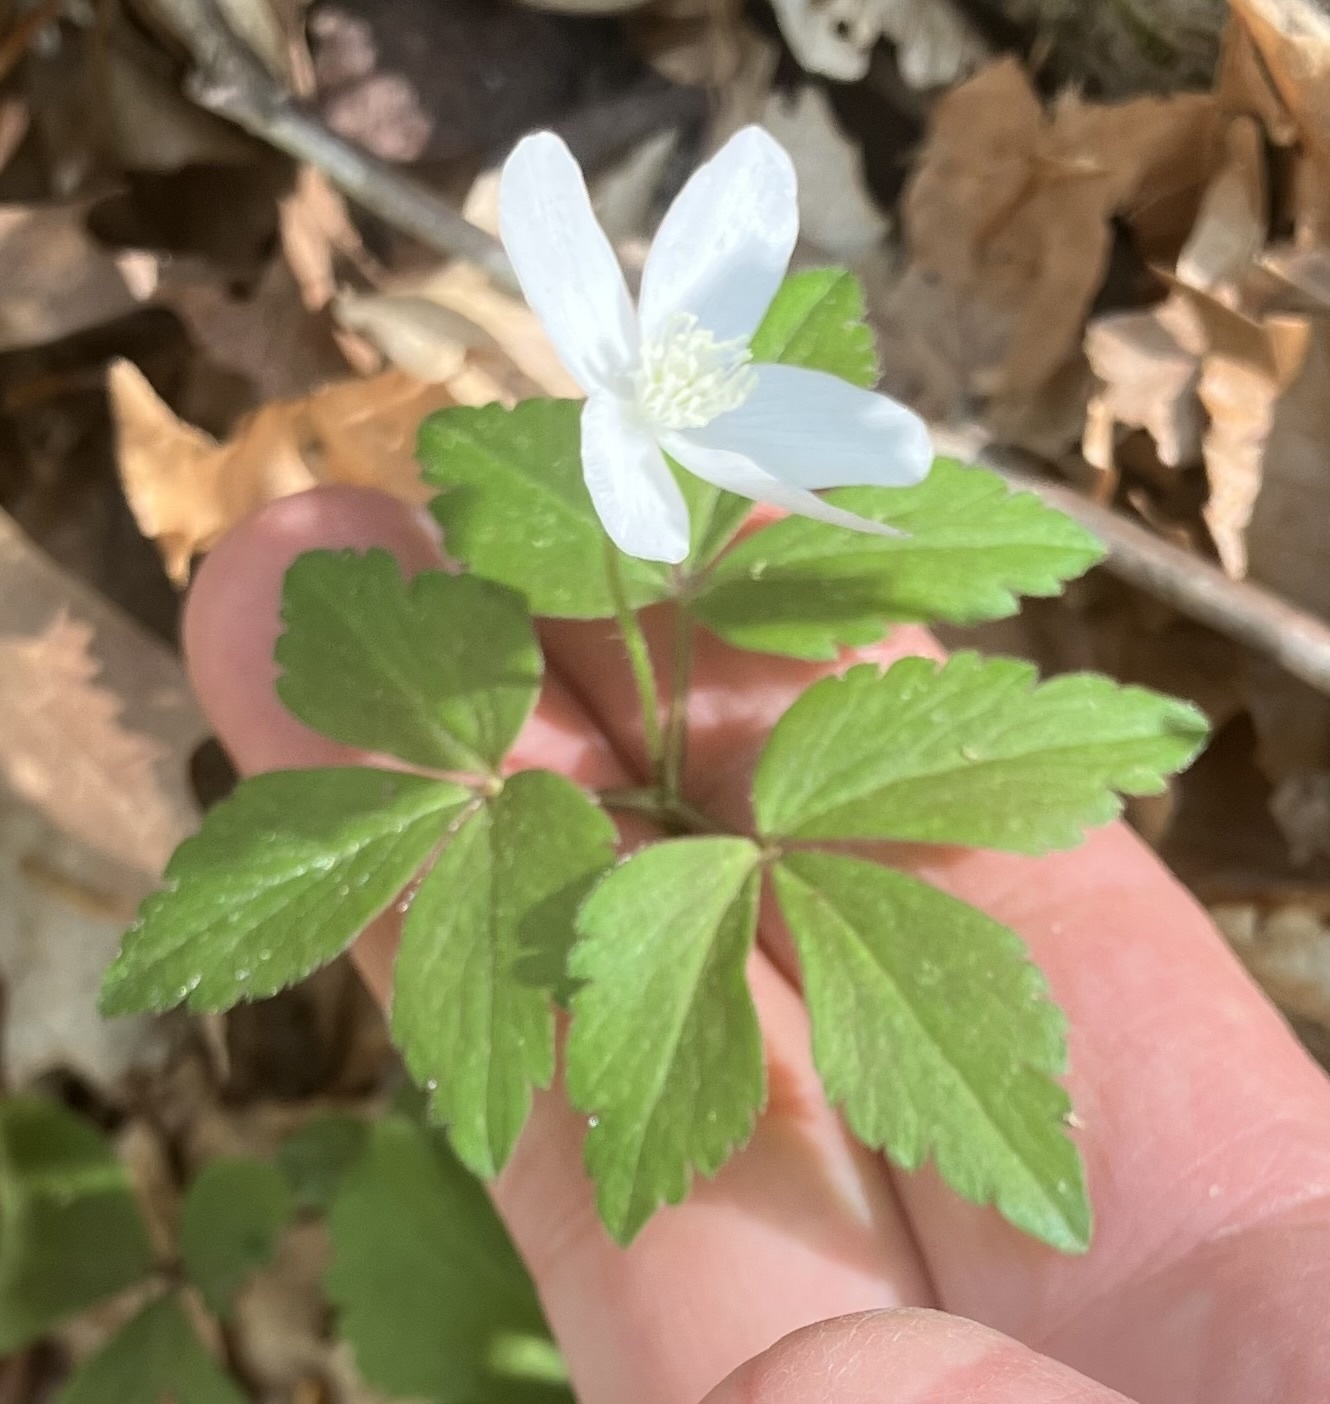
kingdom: Plantae
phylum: Tracheophyta
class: Magnoliopsida
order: Ranunculales
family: Ranunculaceae
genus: Anemone
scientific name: Anemone quinquefolia
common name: Wood anemone
